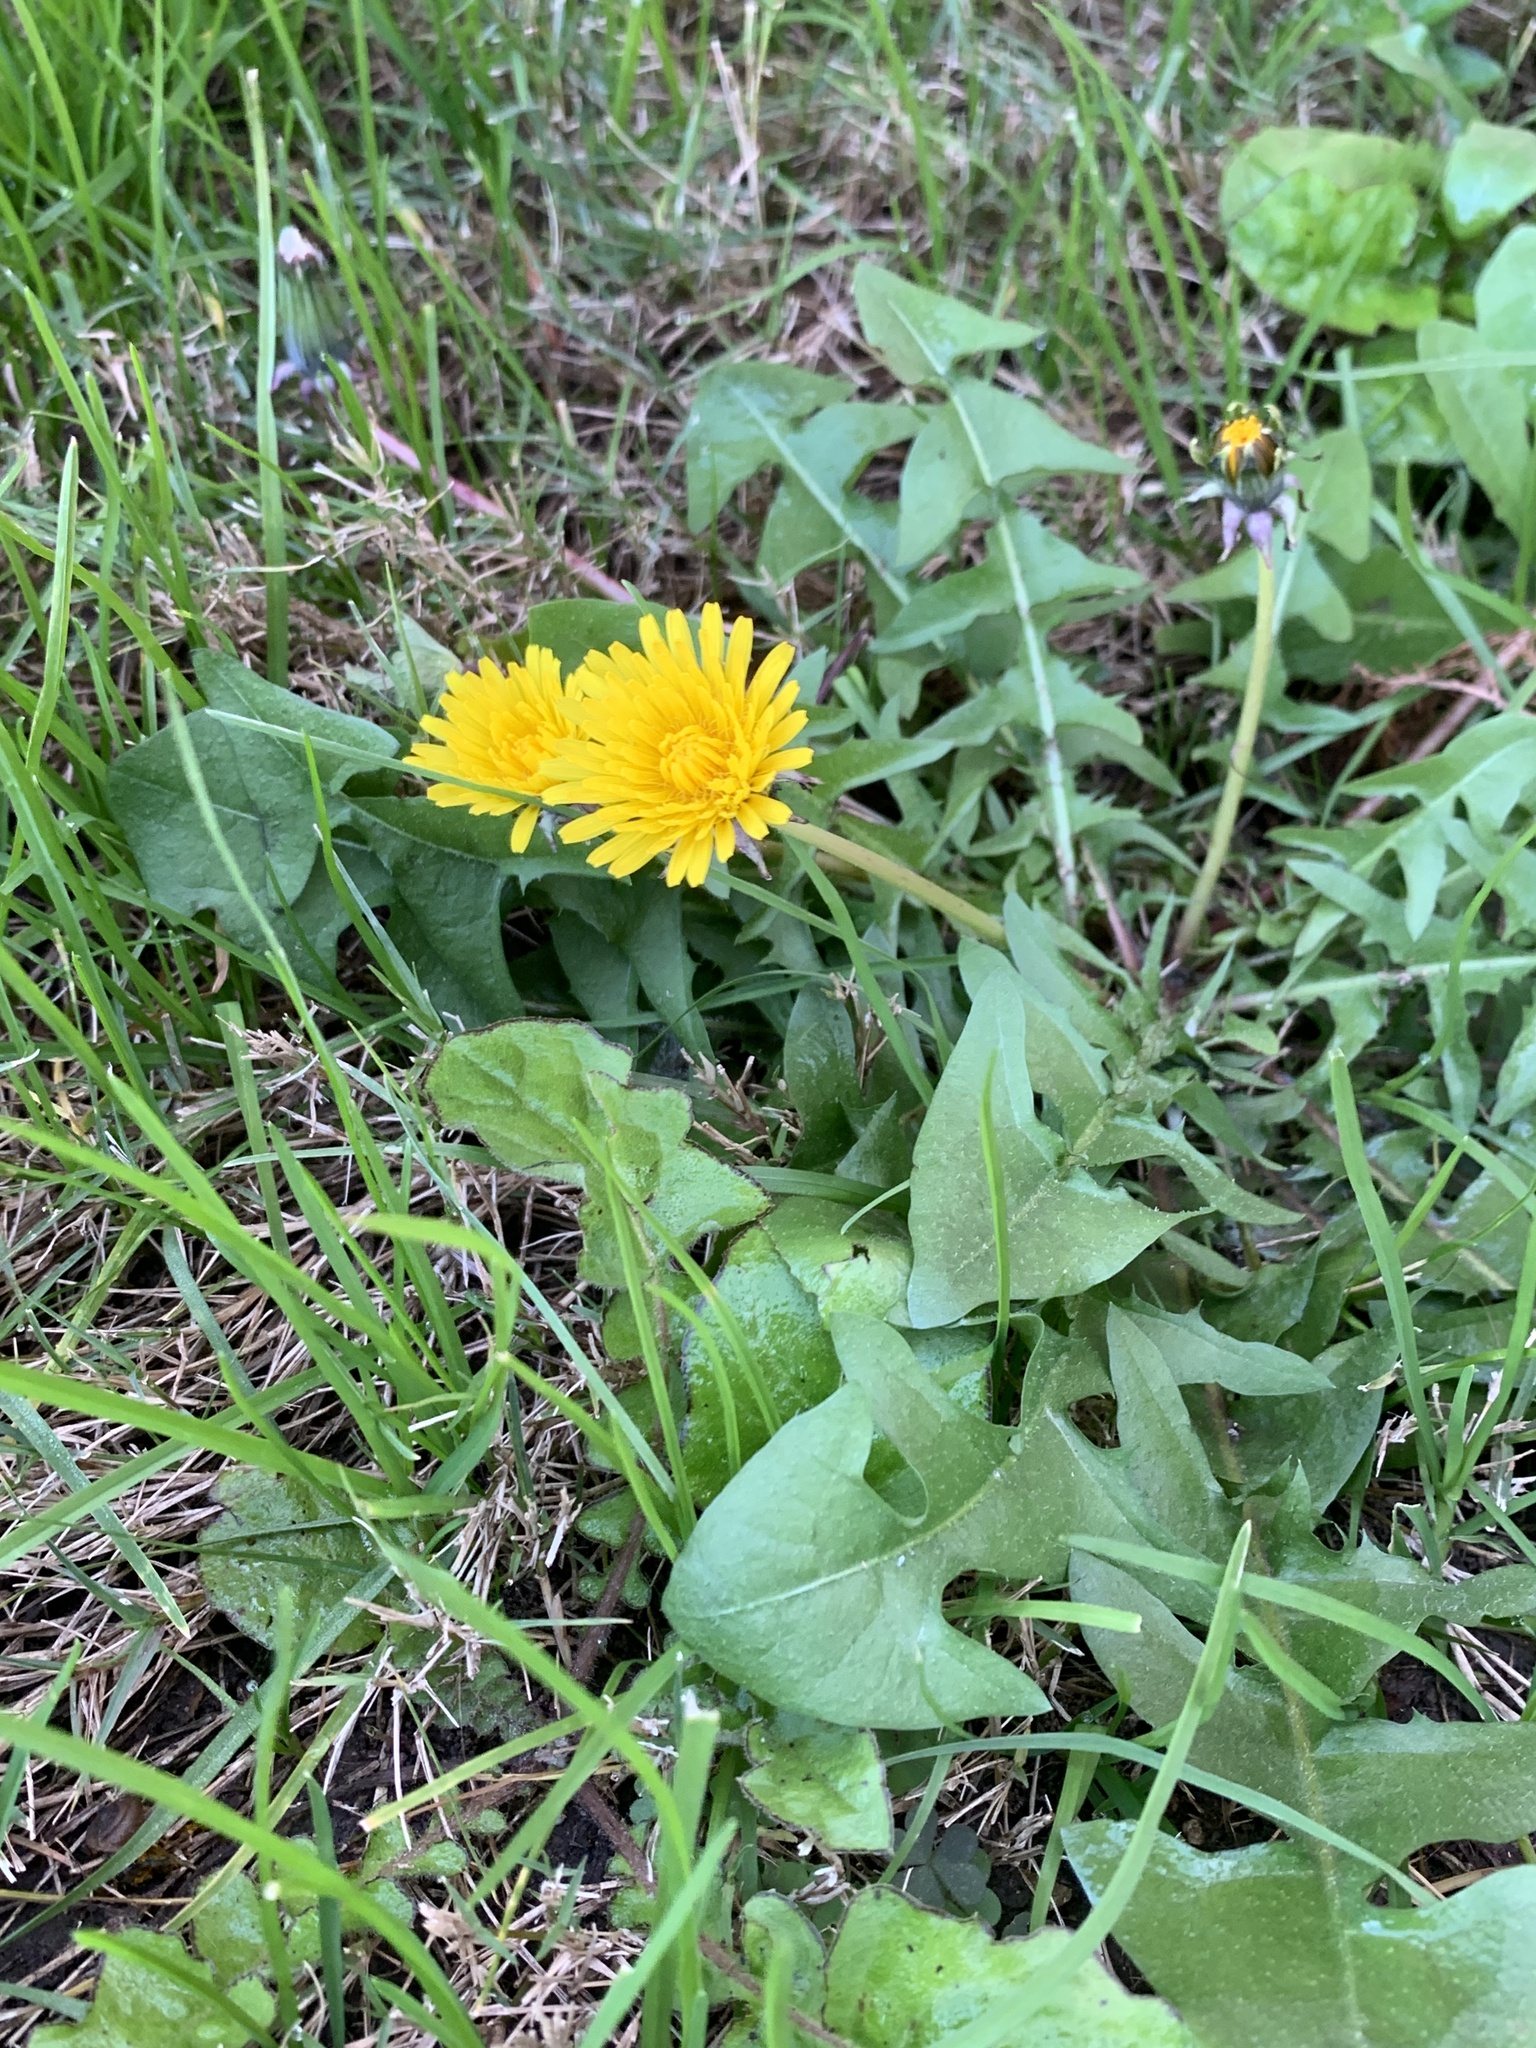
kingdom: Plantae
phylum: Tracheophyta
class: Magnoliopsida
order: Asterales
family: Asteraceae
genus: Taraxacum
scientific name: Taraxacum officinale
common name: Common dandelion
